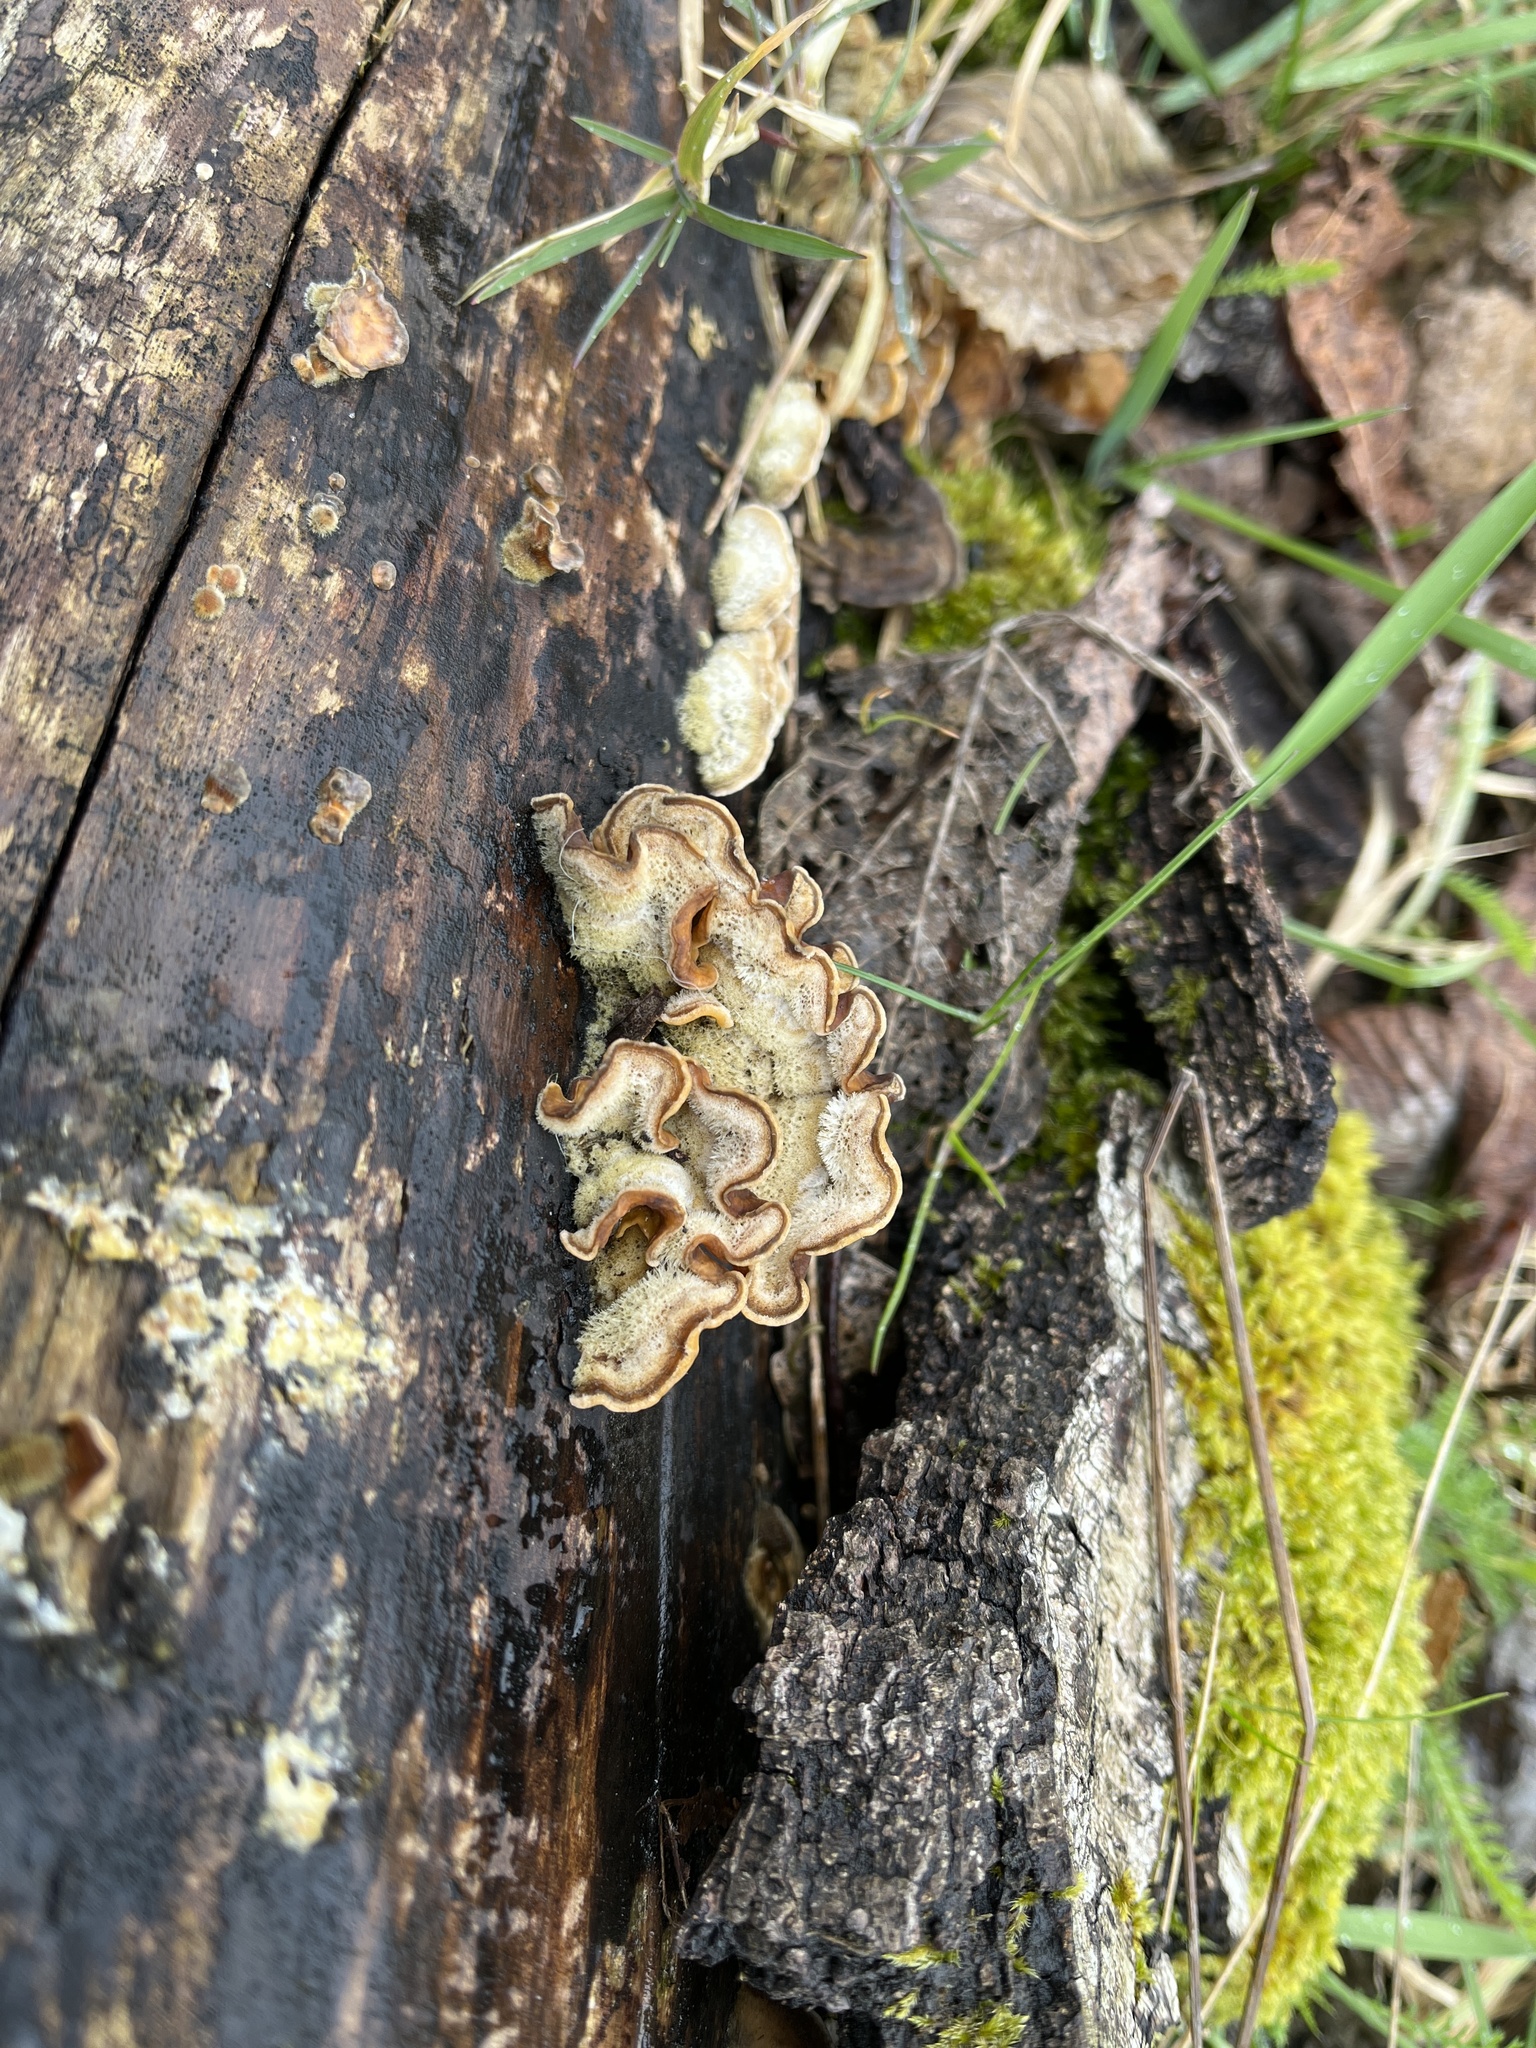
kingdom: Fungi
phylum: Basidiomycota
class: Agaricomycetes
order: Russulales
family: Stereaceae
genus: Stereum
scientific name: Stereum hirsutum
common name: Hairy curtain crust
